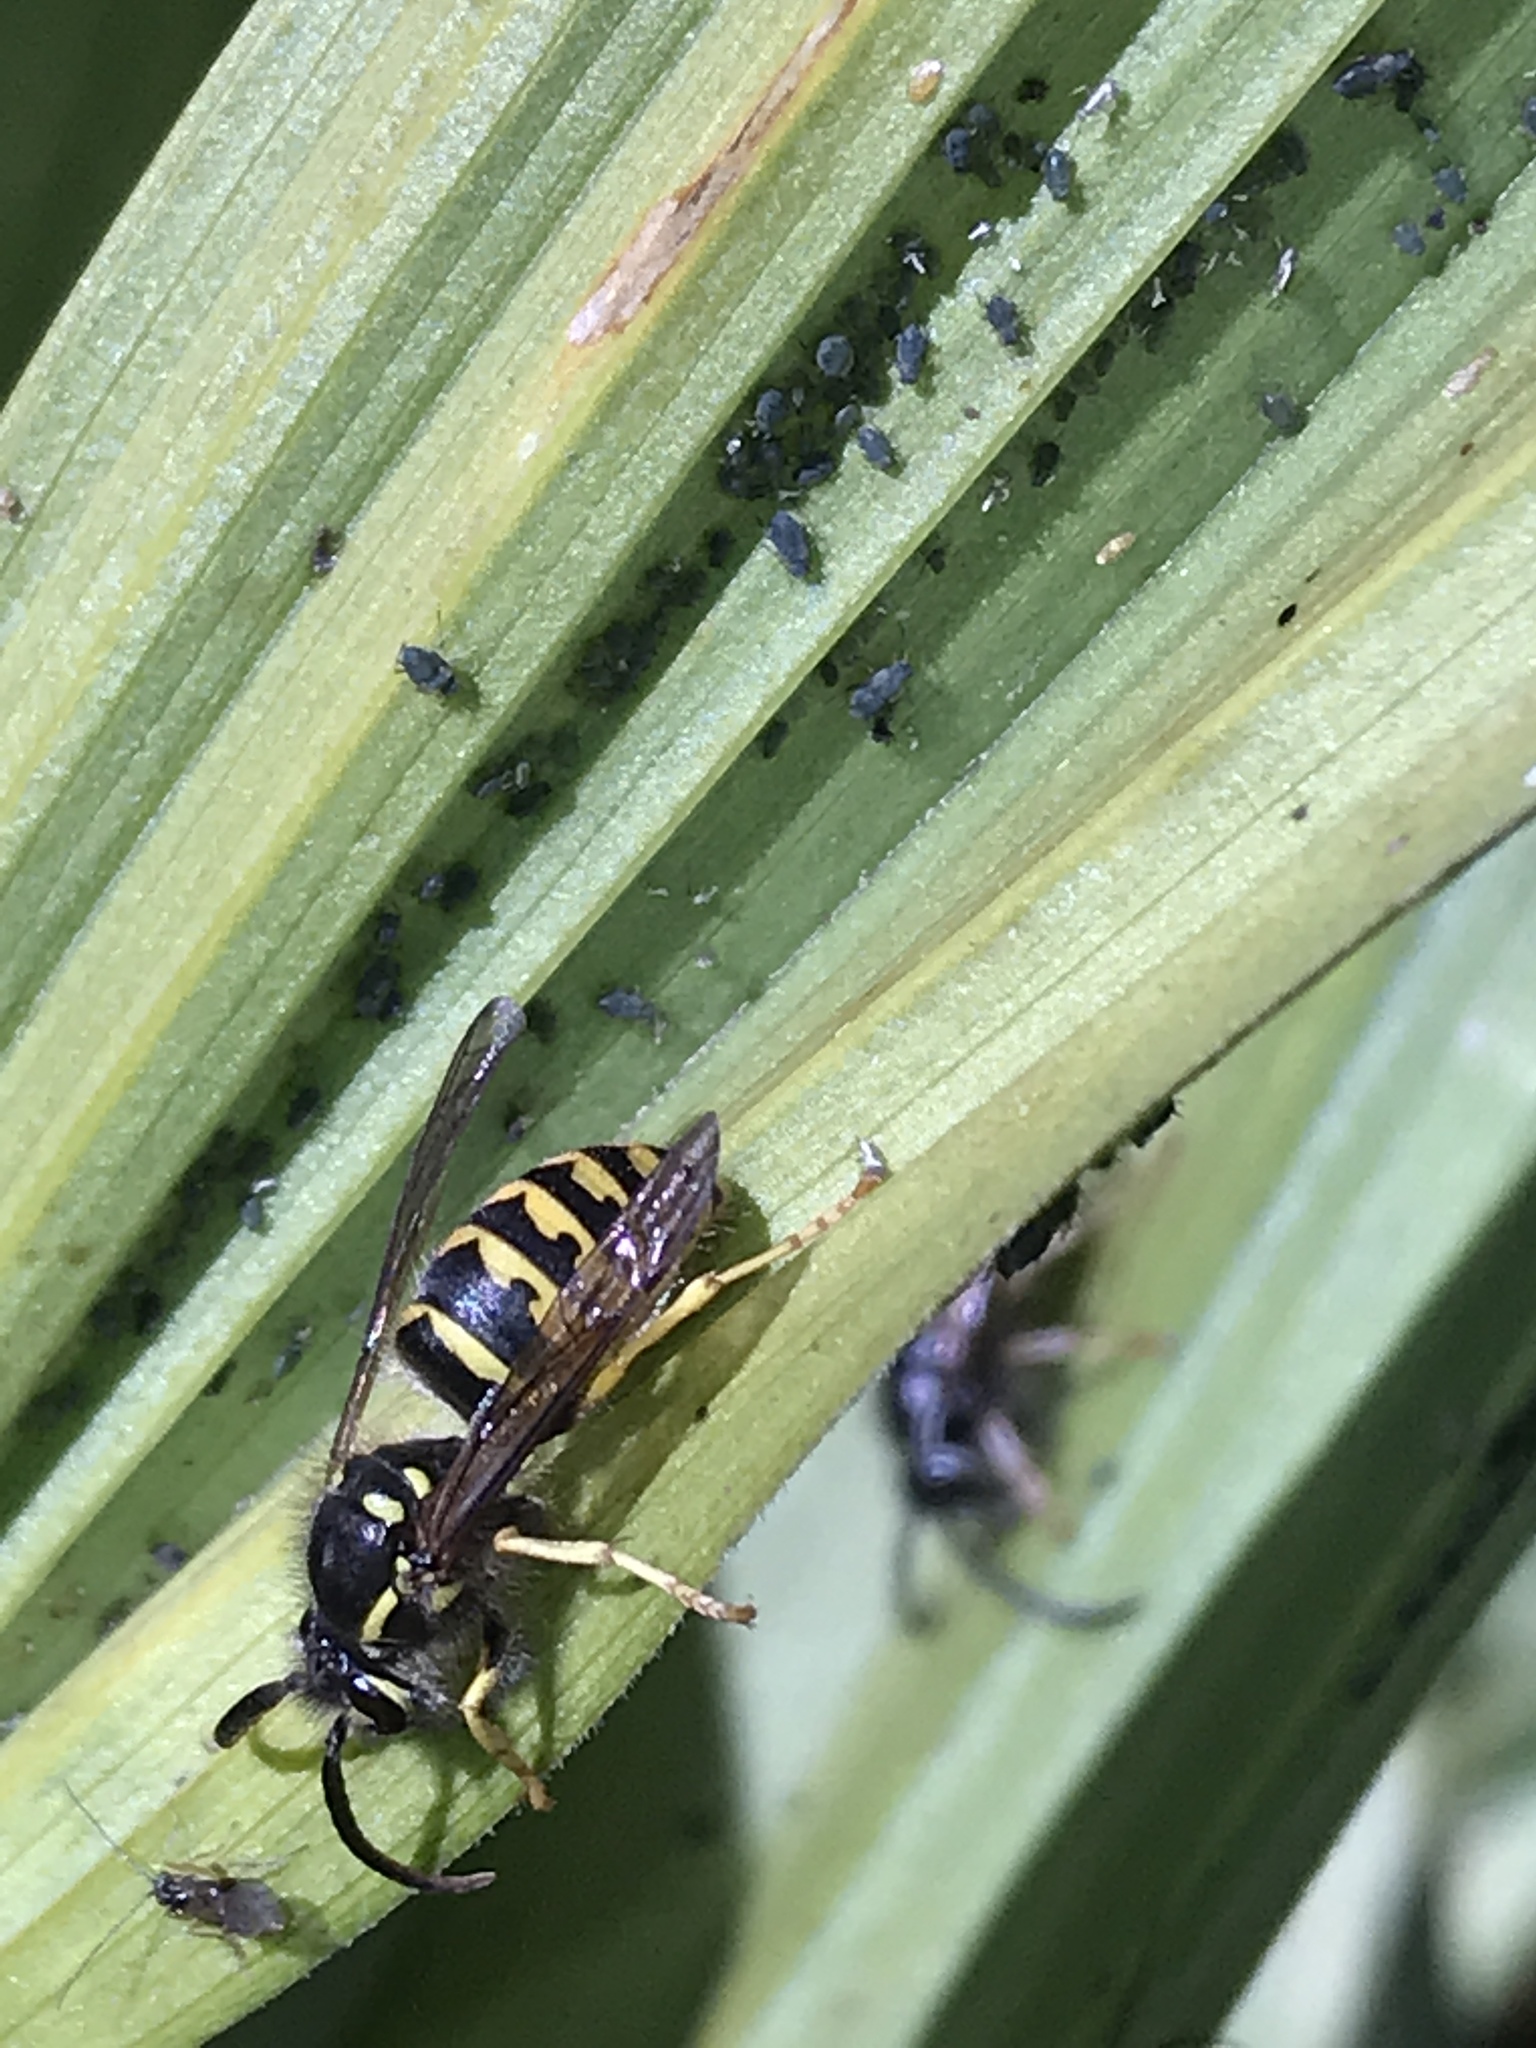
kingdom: Animalia
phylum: Arthropoda
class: Insecta
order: Hymenoptera
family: Vespidae
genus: Dolichovespula
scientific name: Dolichovespula arenaria
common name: Aerial yellowjacket
